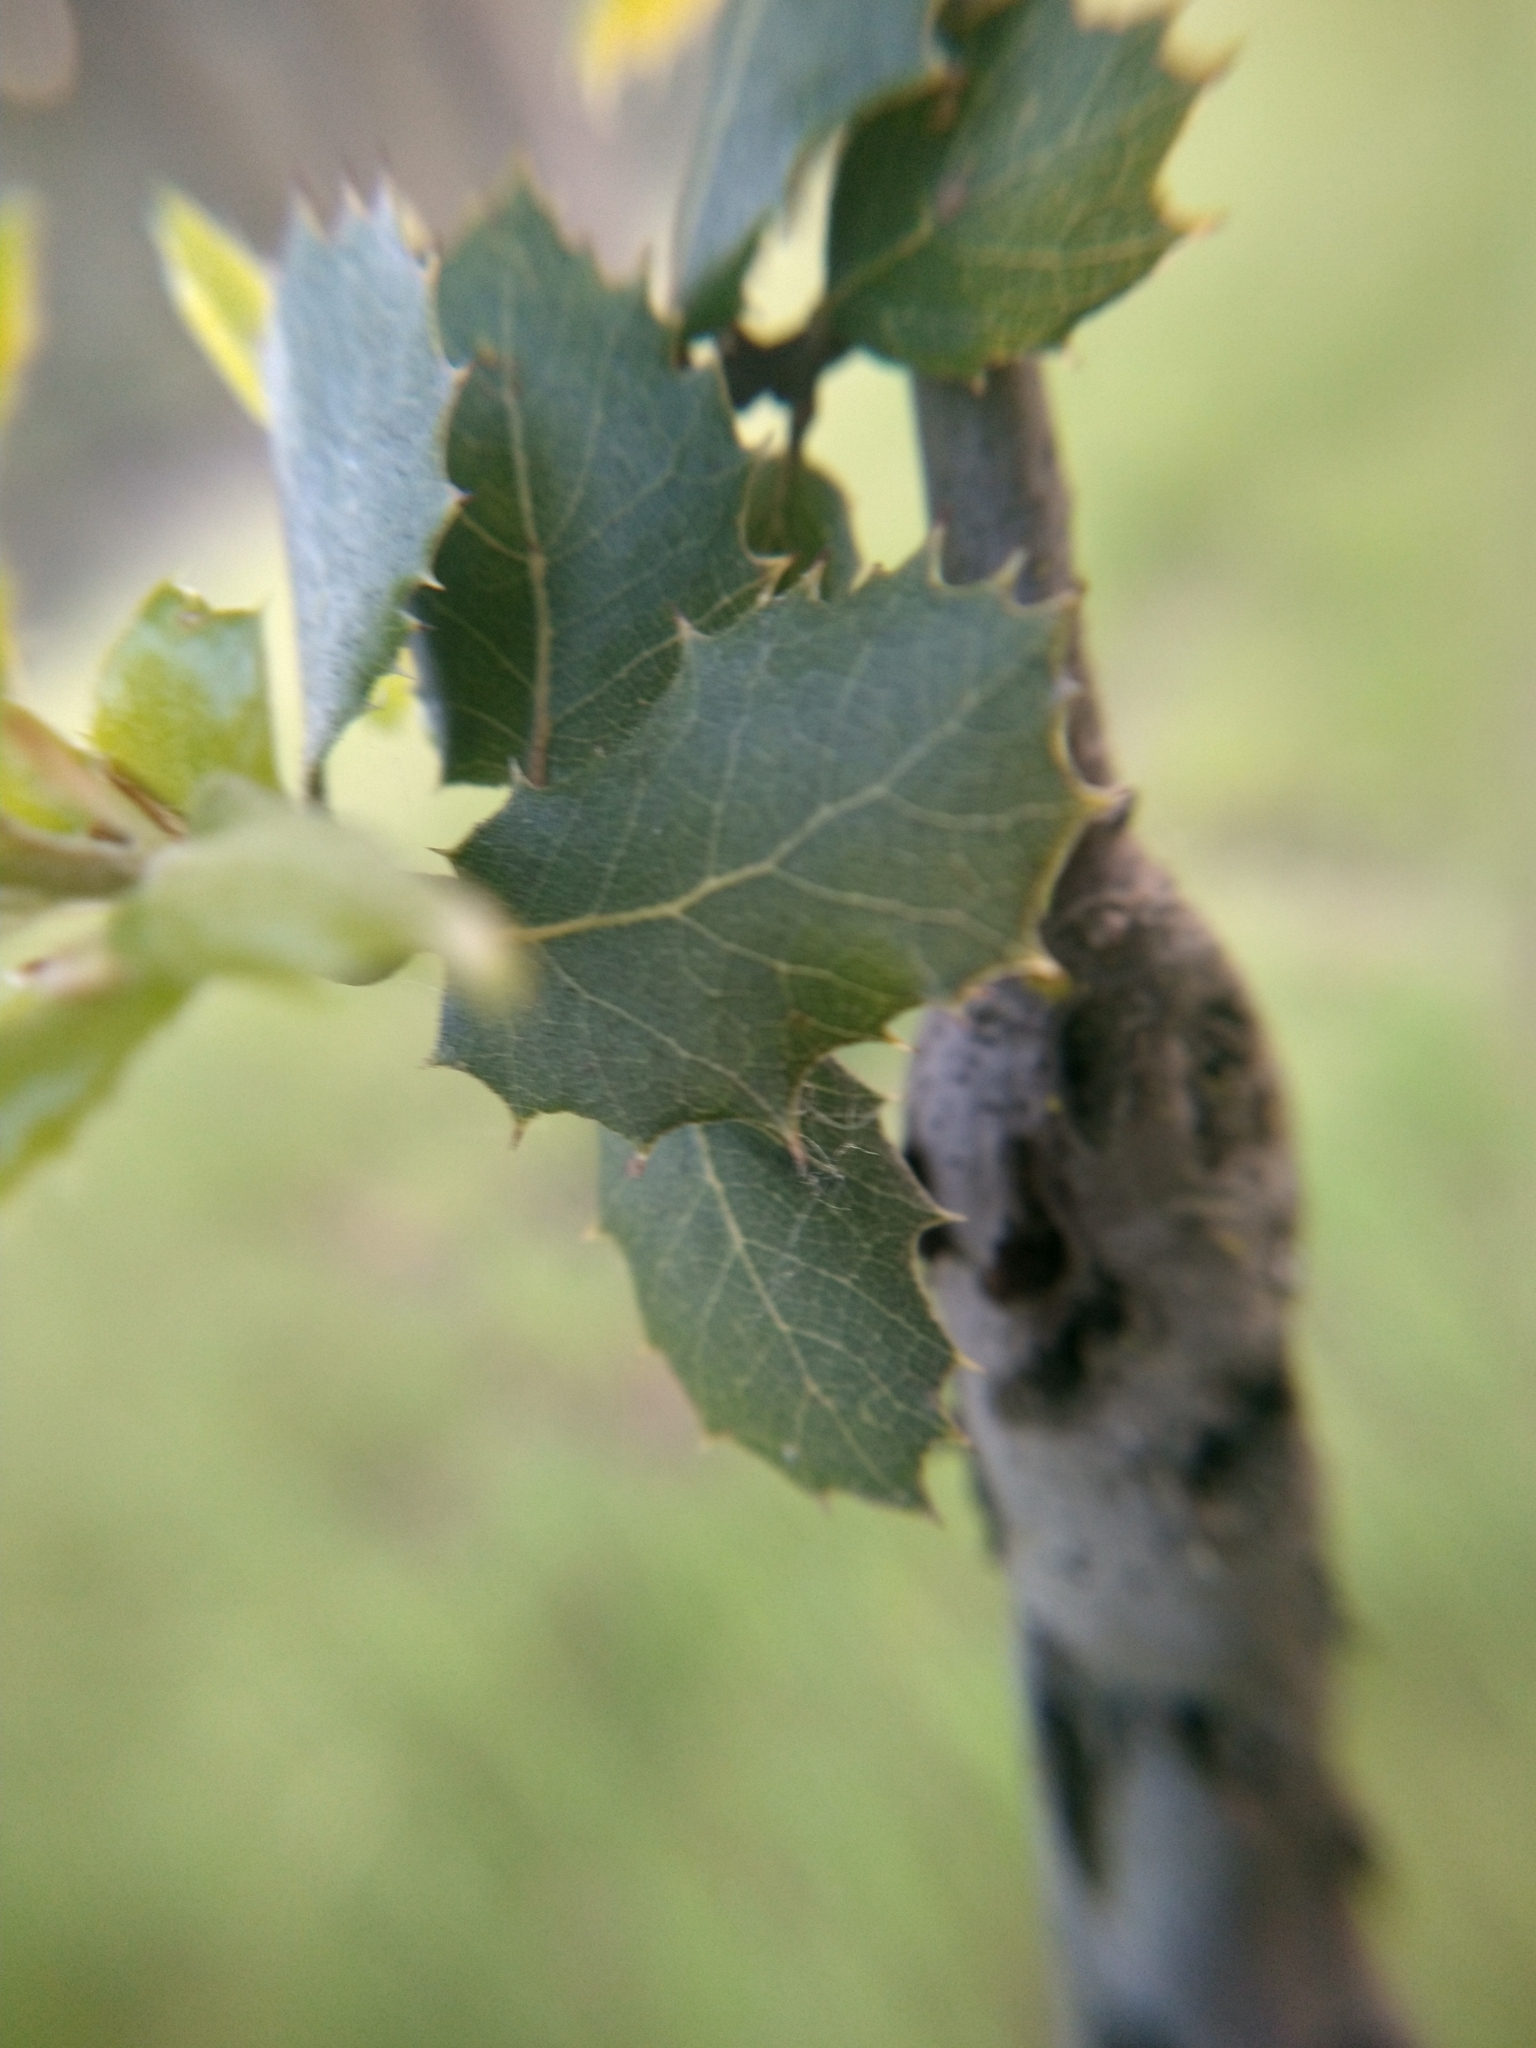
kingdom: Animalia
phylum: Arthropoda
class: Insecta
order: Hymenoptera
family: Cynipidae
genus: Callirhytis
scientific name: Callirhytis
